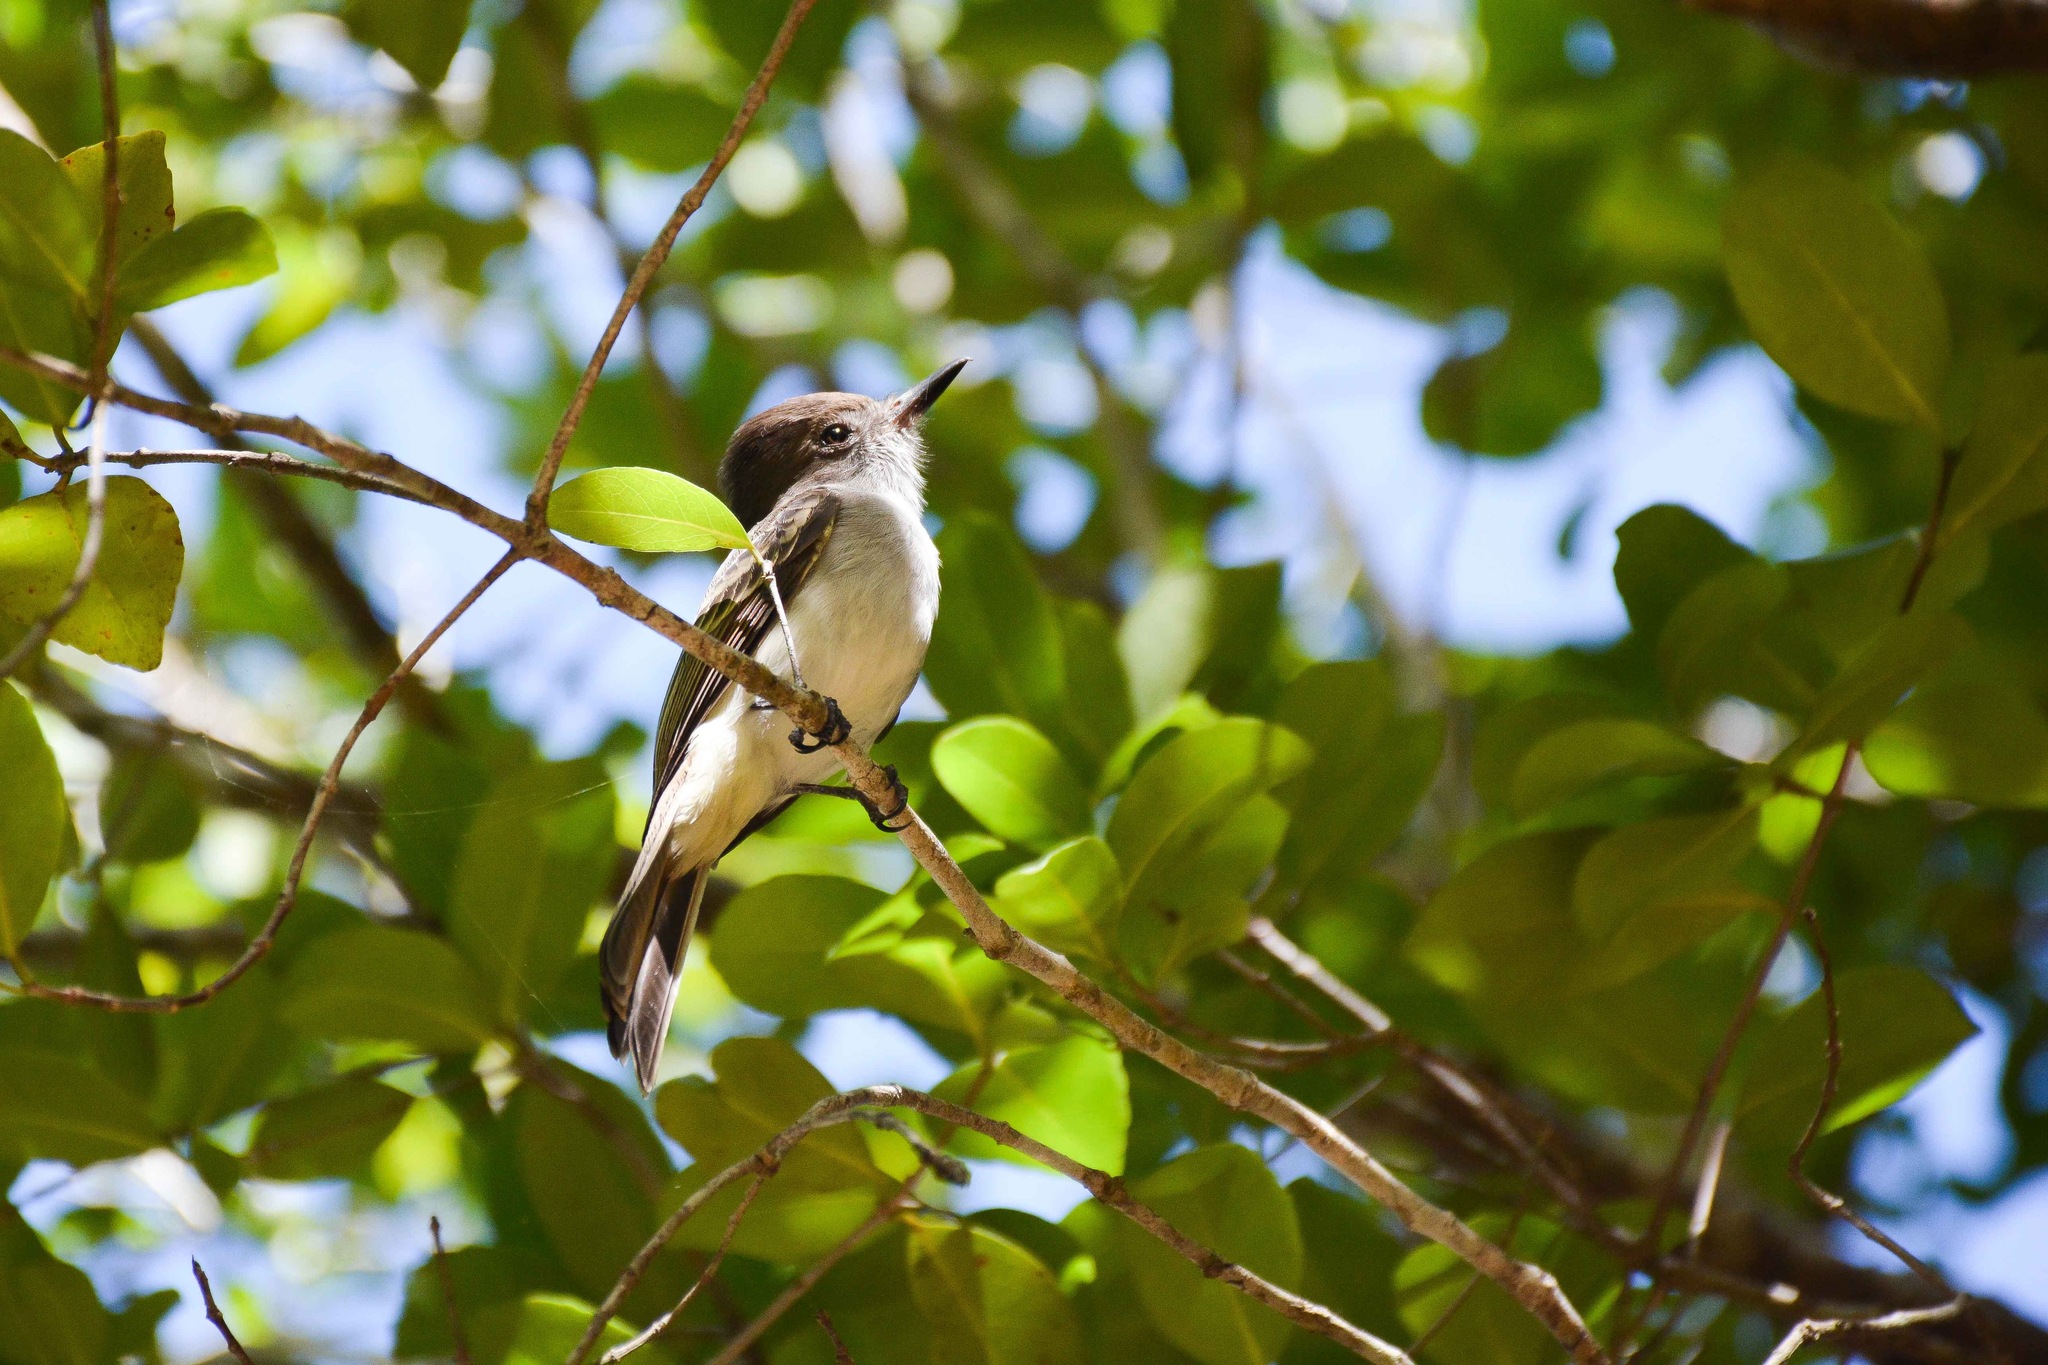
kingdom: Animalia
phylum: Chordata
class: Aves
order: Passeriformes
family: Tyrannidae
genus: Tyrannus
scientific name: Tyrannus caudifasciatus
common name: Loggerhead kingbird
